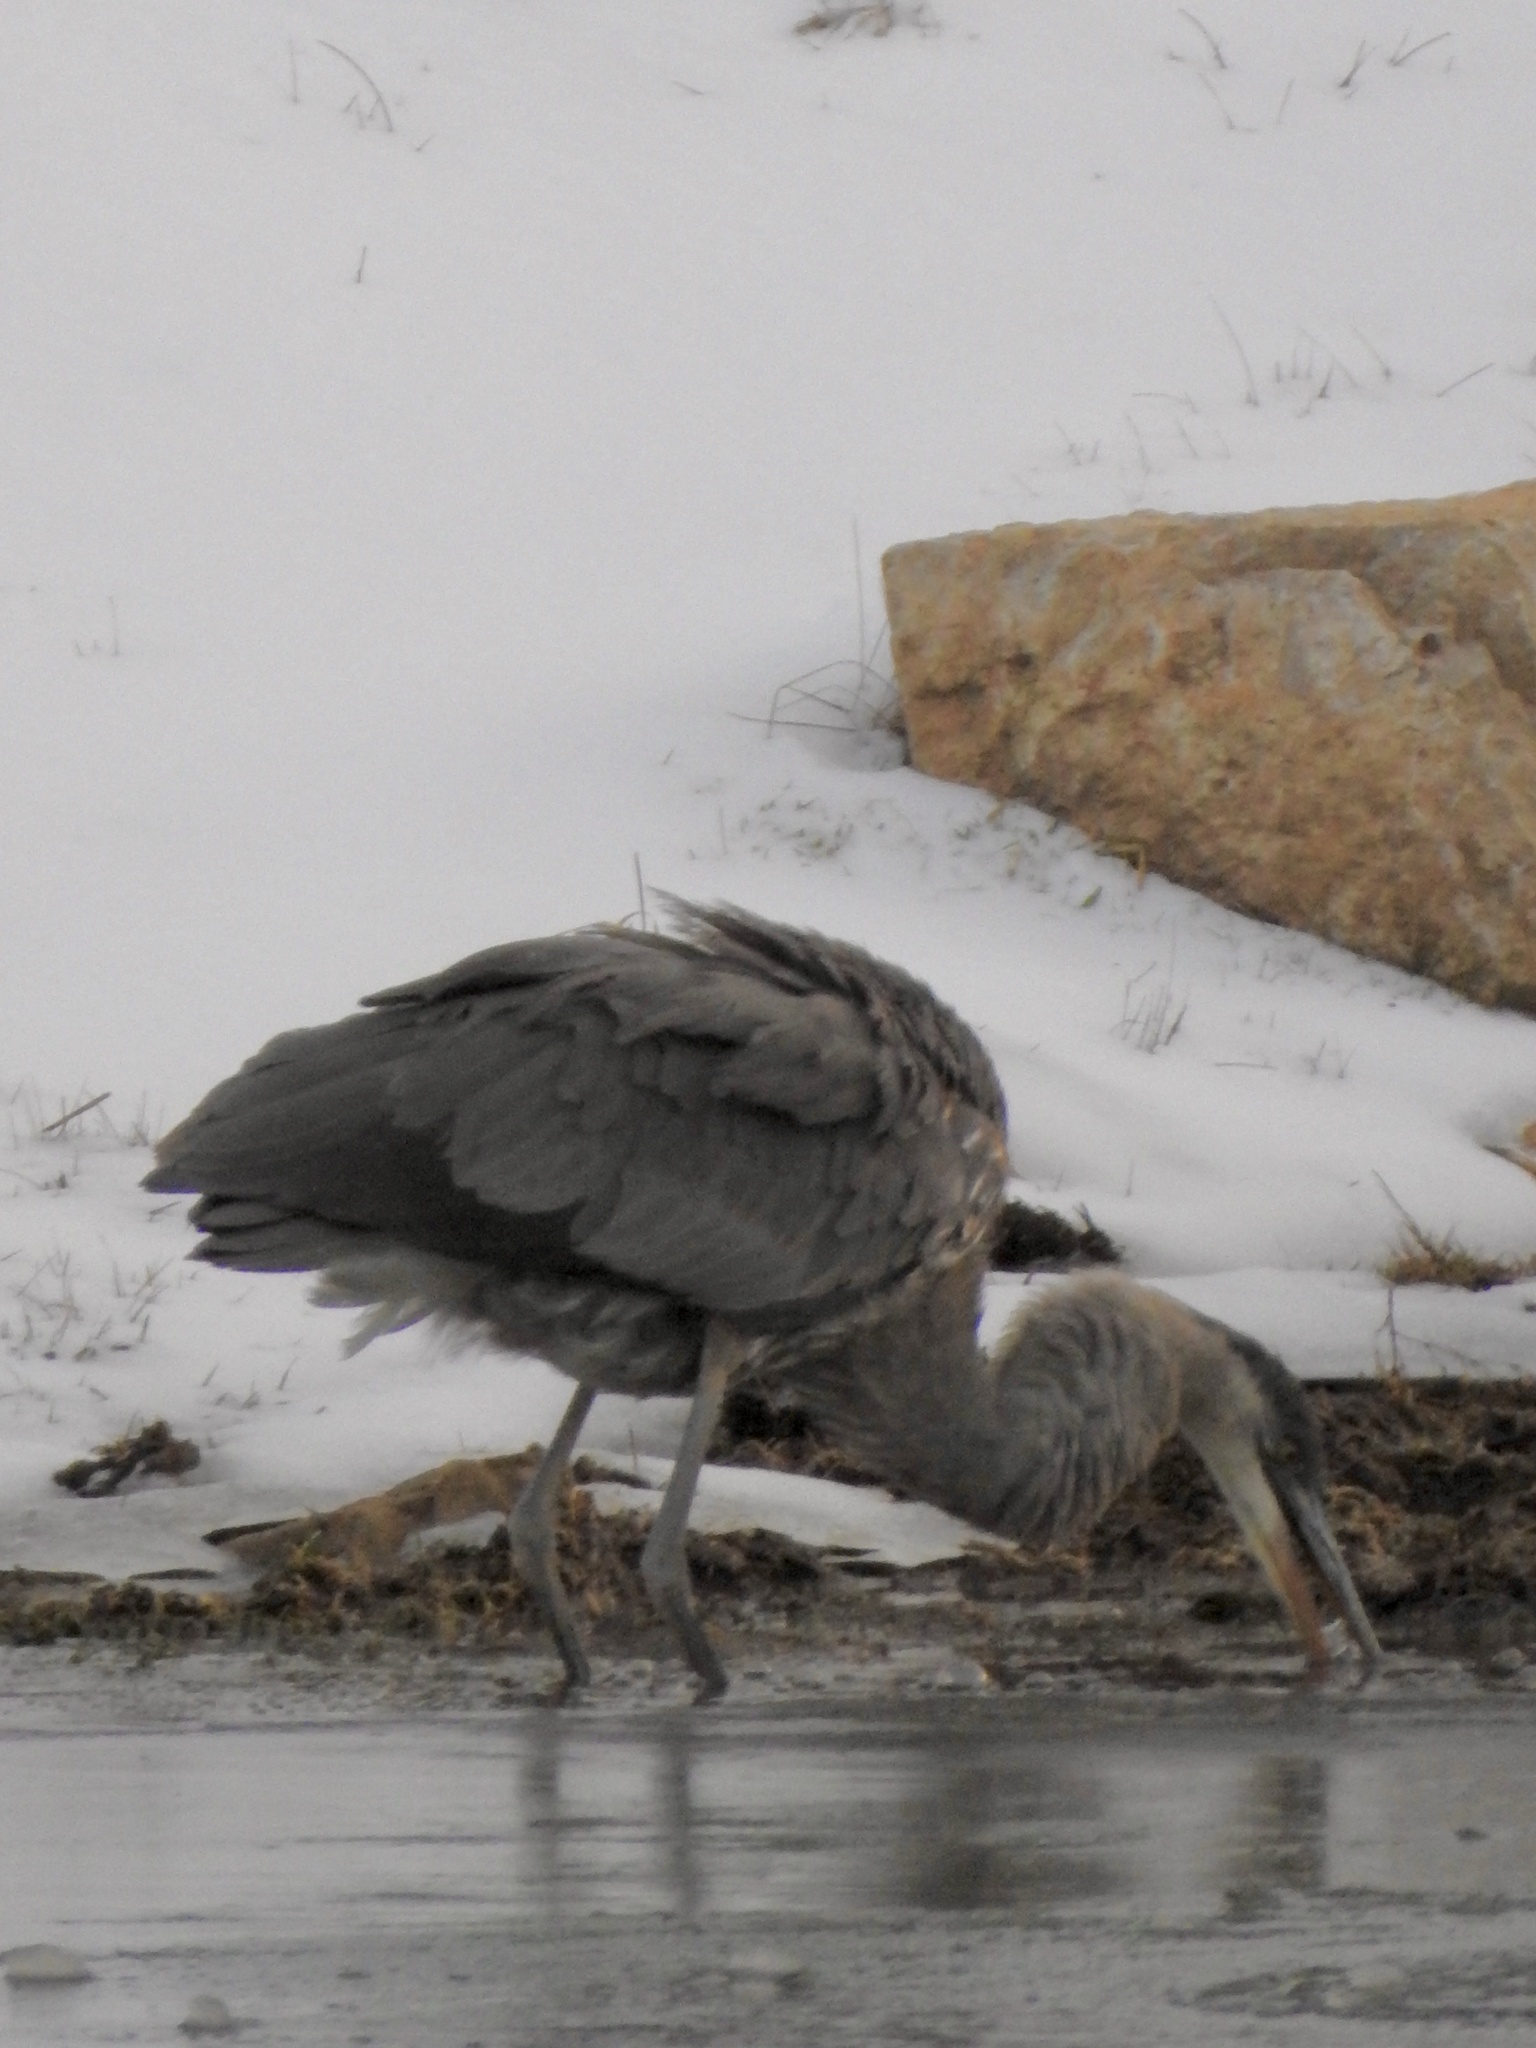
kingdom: Animalia
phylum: Chordata
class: Aves
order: Pelecaniformes
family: Ardeidae
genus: Ardea
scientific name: Ardea herodias
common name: Great blue heron
